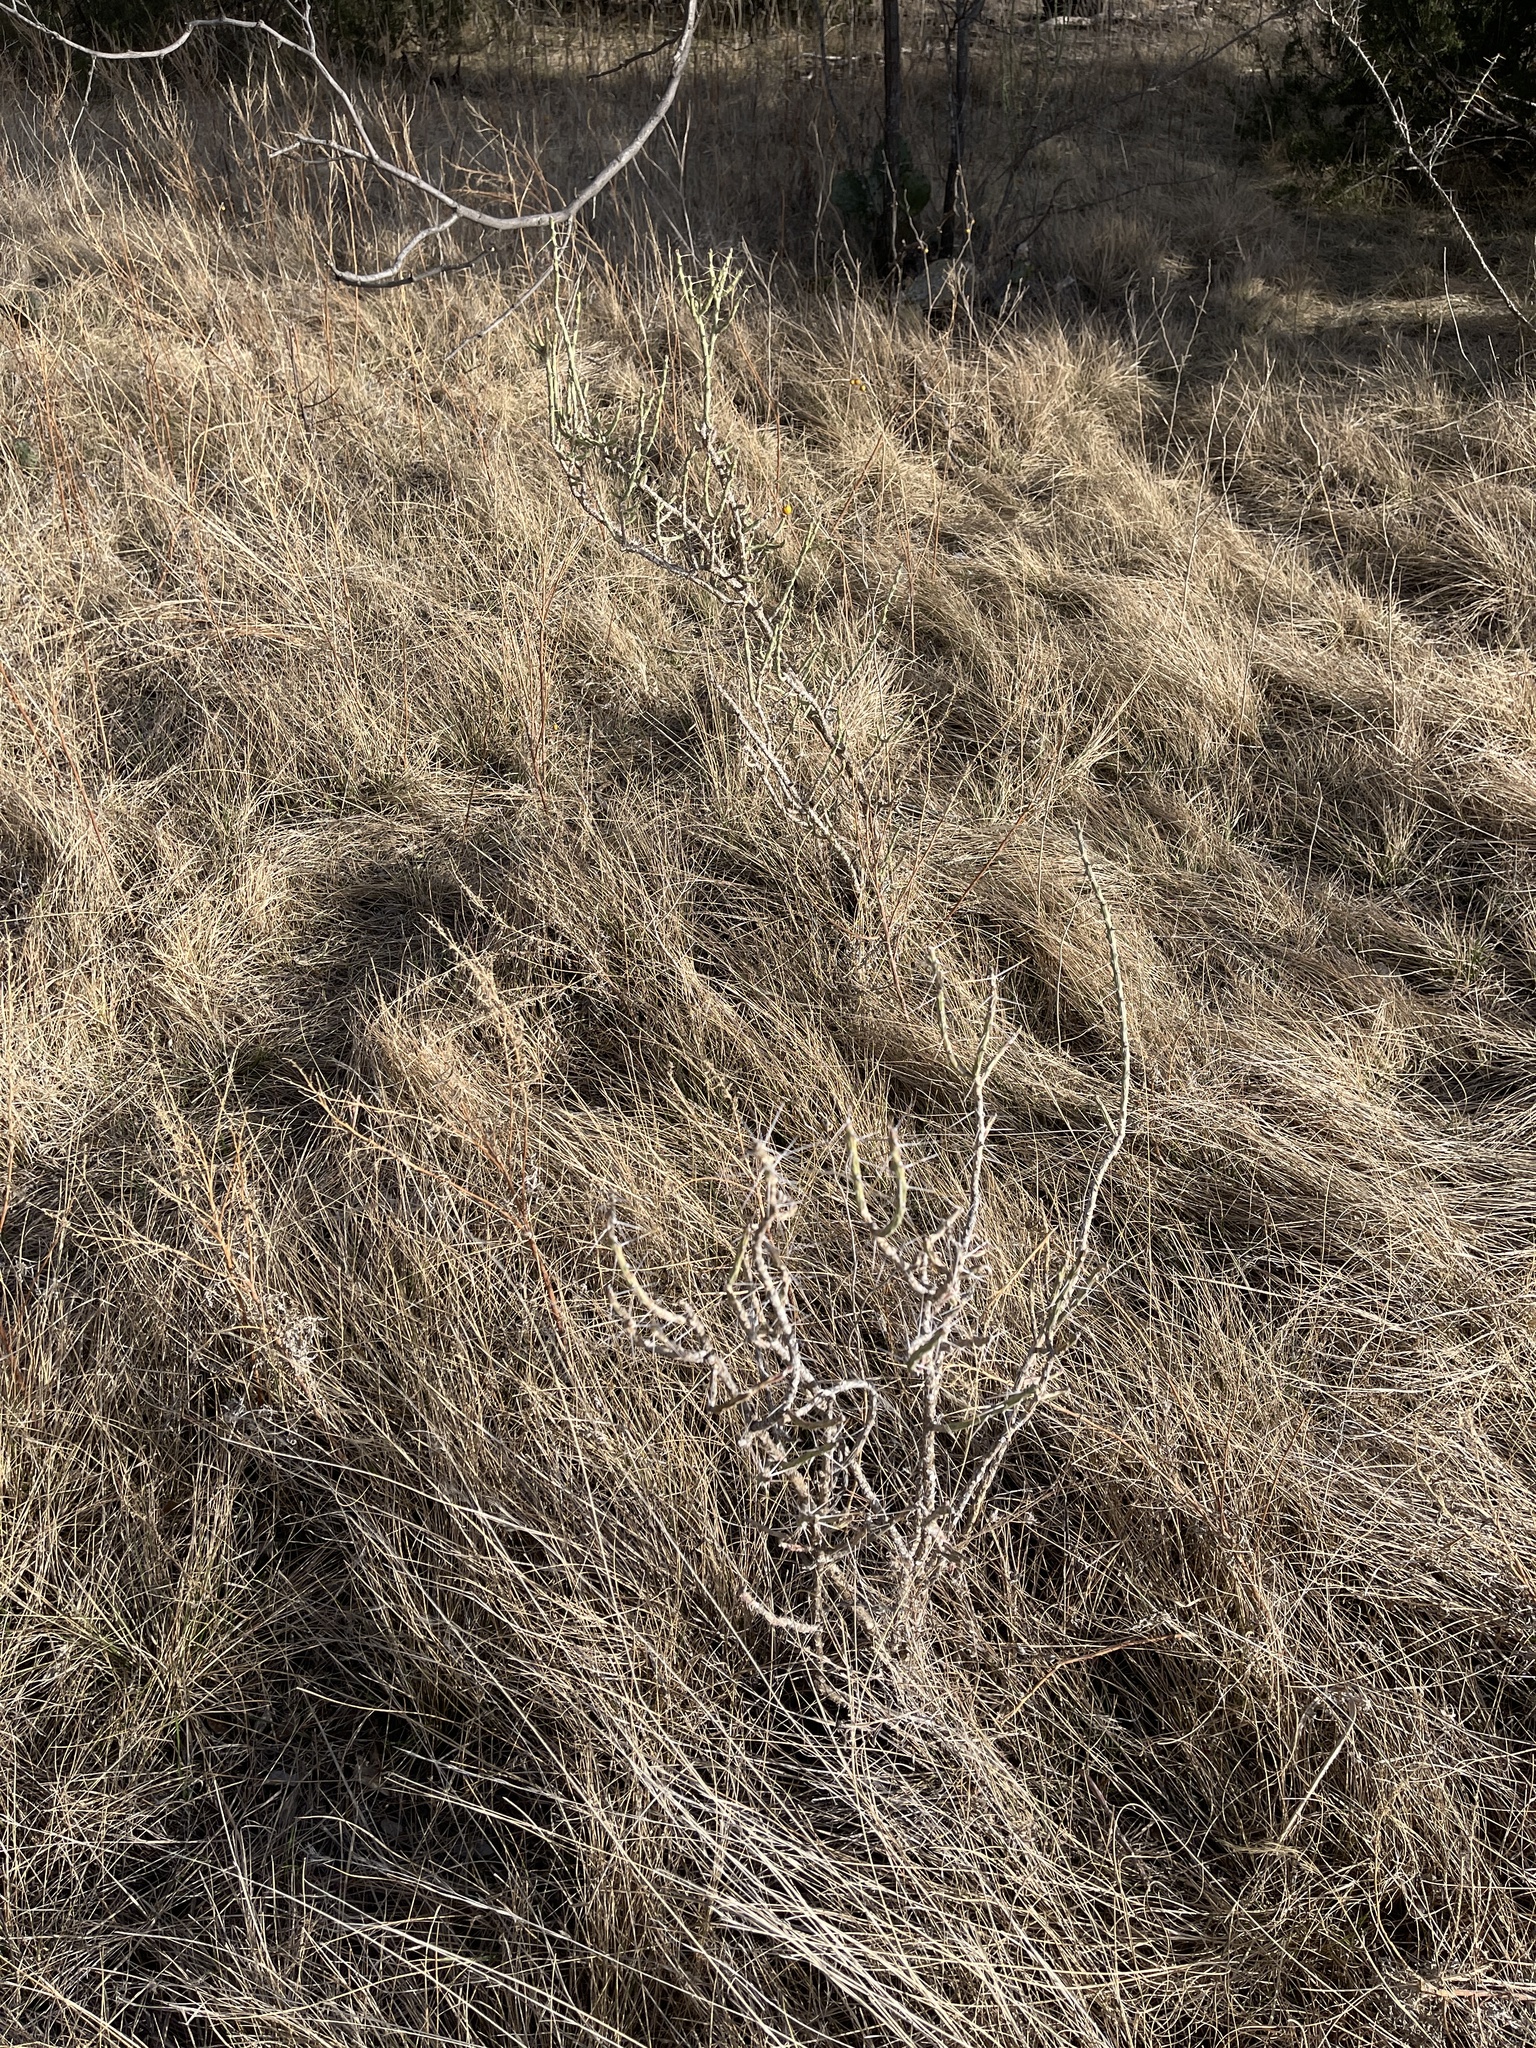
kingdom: Plantae
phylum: Tracheophyta
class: Magnoliopsida
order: Caryophyllales
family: Cactaceae
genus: Cylindropuntia
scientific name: Cylindropuntia leptocaulis
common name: Christmas cactus
